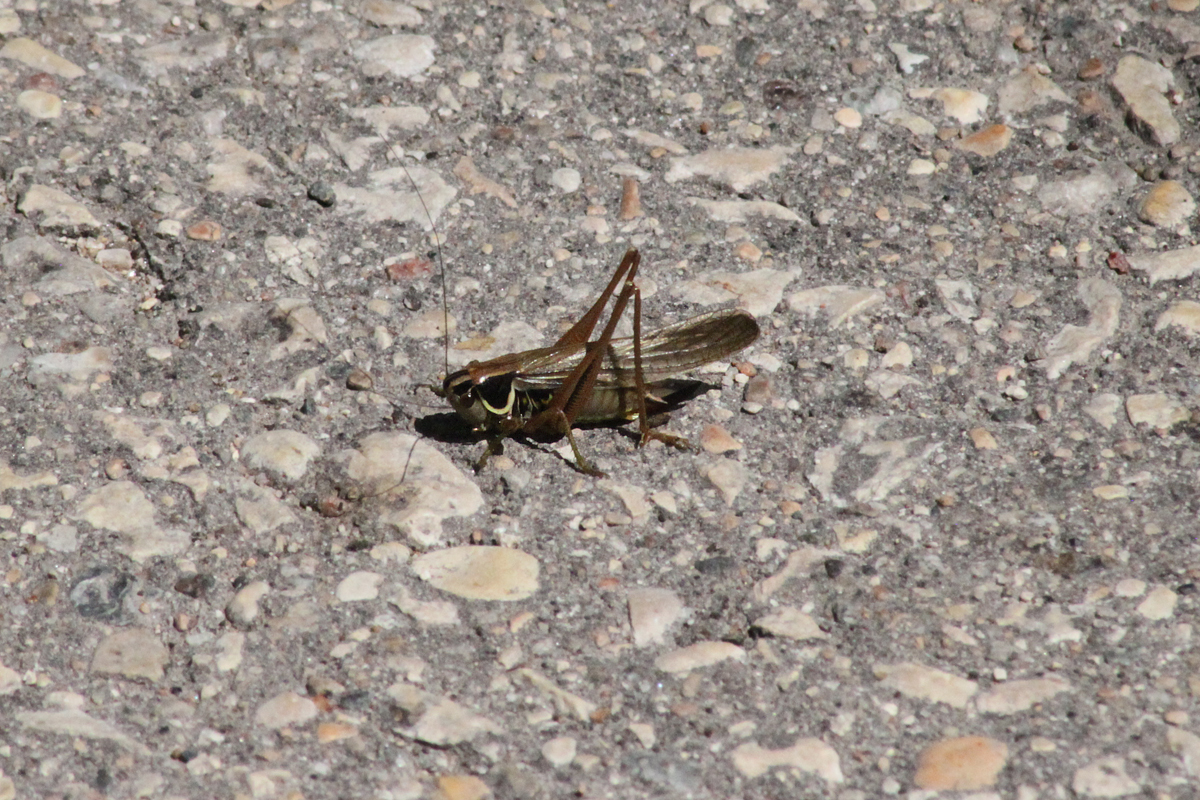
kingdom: Animalia
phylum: Arthropoda
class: Insecta
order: Orthoptera
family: Tettigoniidae
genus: Roeseliana
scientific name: Roeseliana roeselii
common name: Roesel's bush cricket
